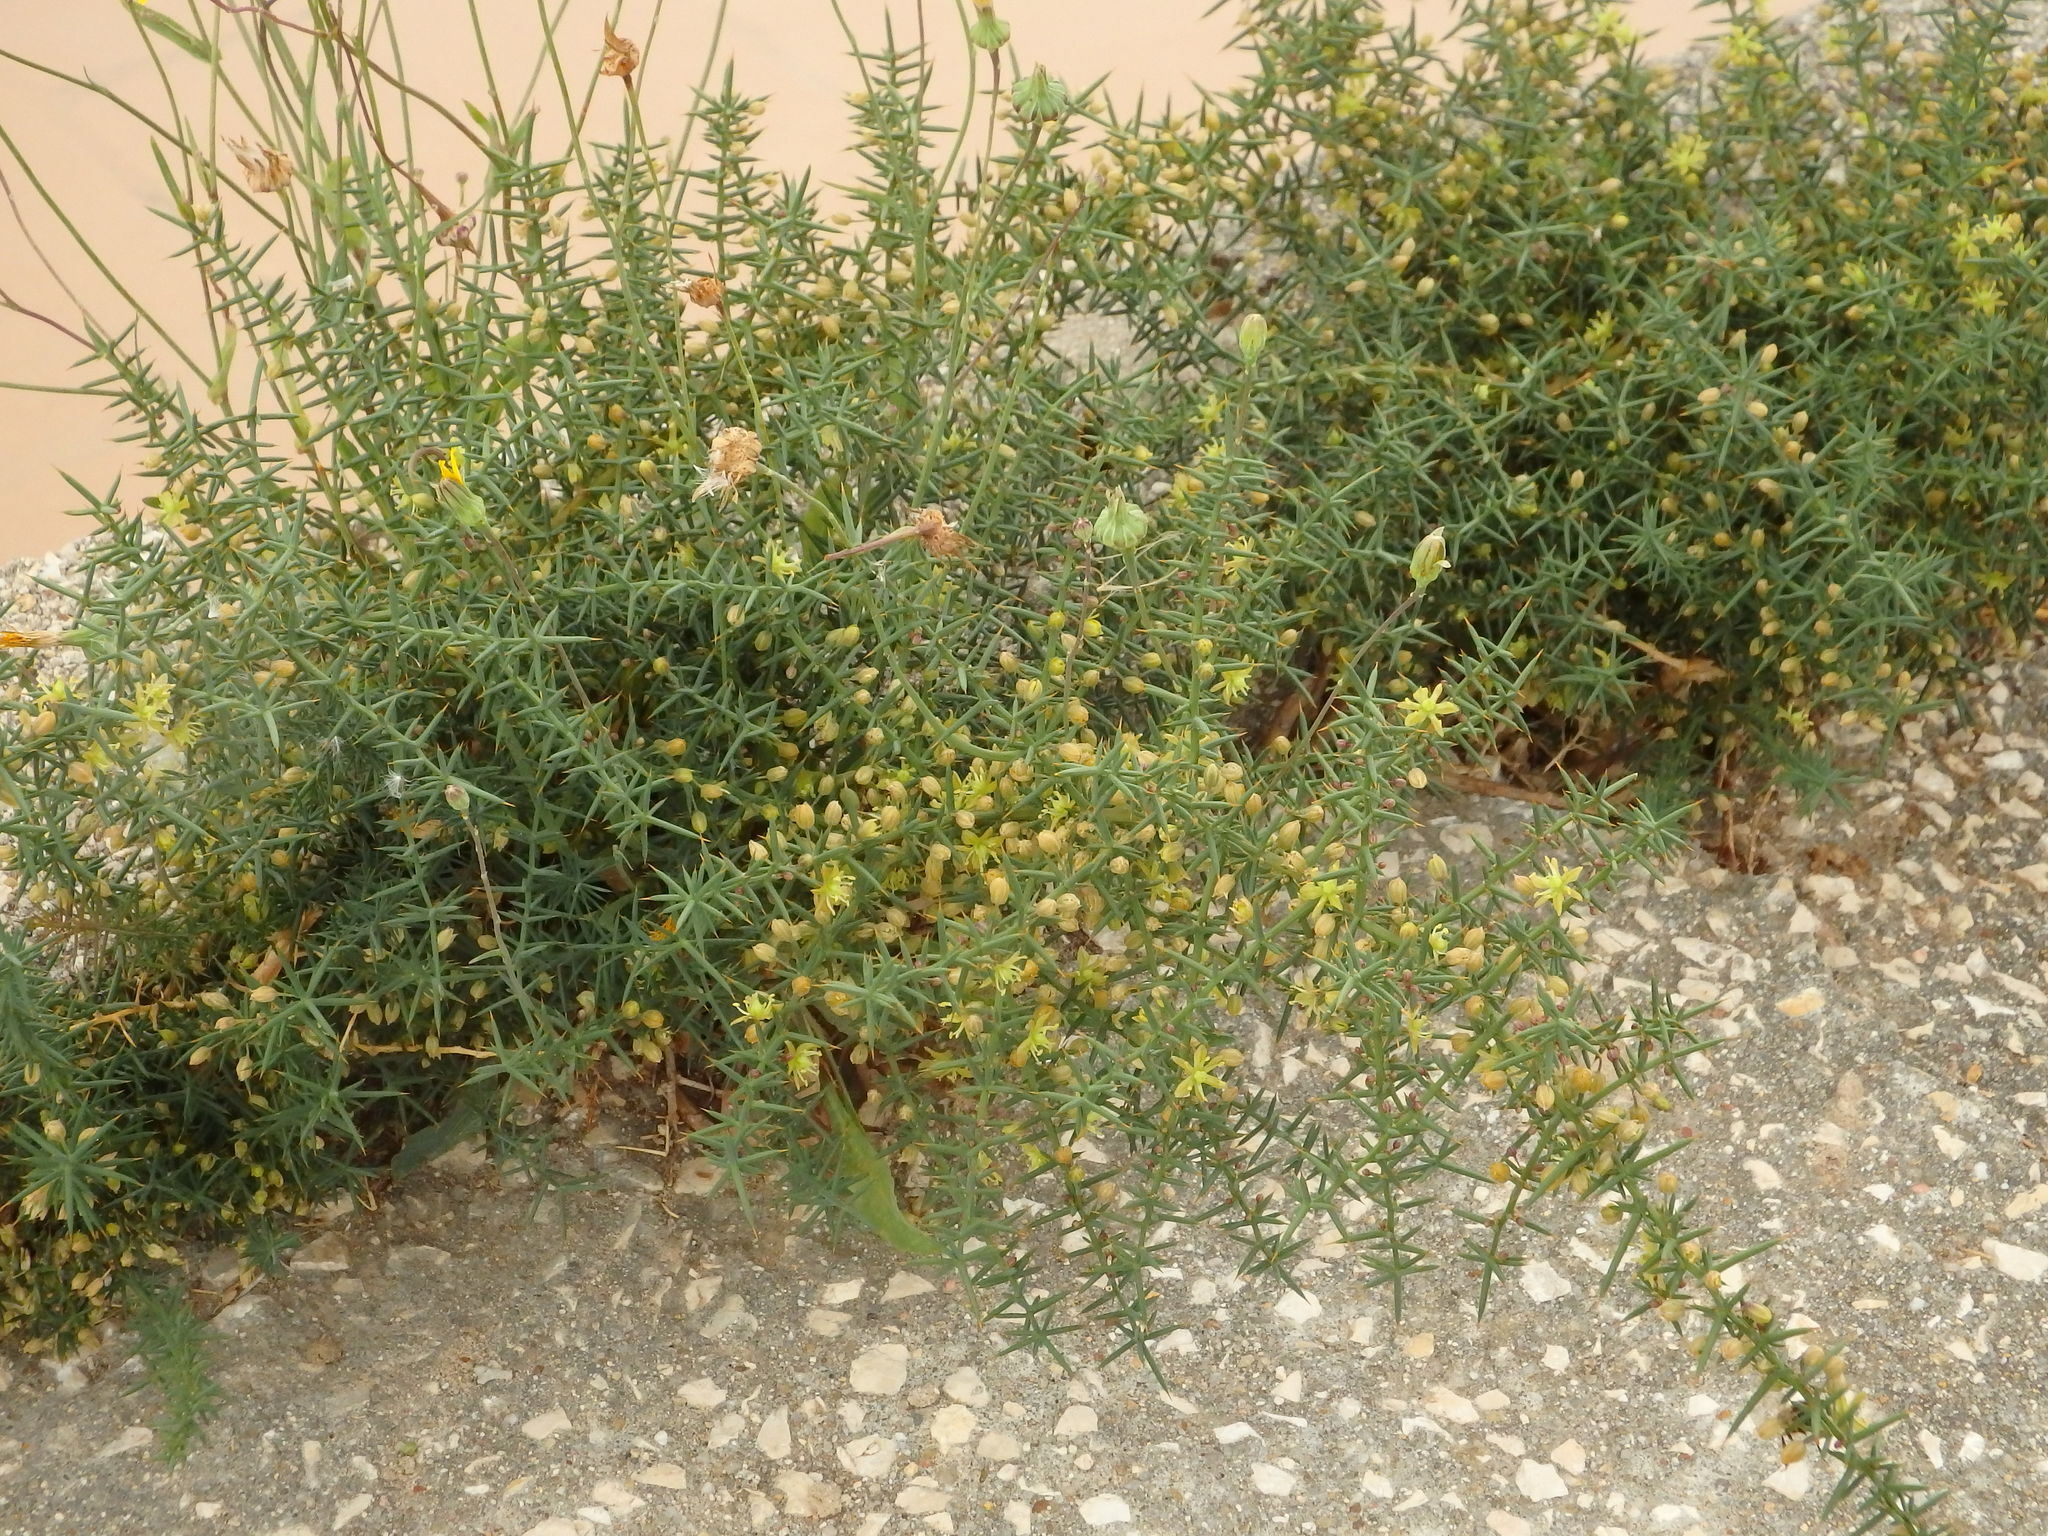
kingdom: Plantae
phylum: Tracheophyta
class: Liliopsida
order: Asparagales
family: Asparagaceae
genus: Asparagus
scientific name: Asparagus aphyllus
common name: Mediterranean asparagus
